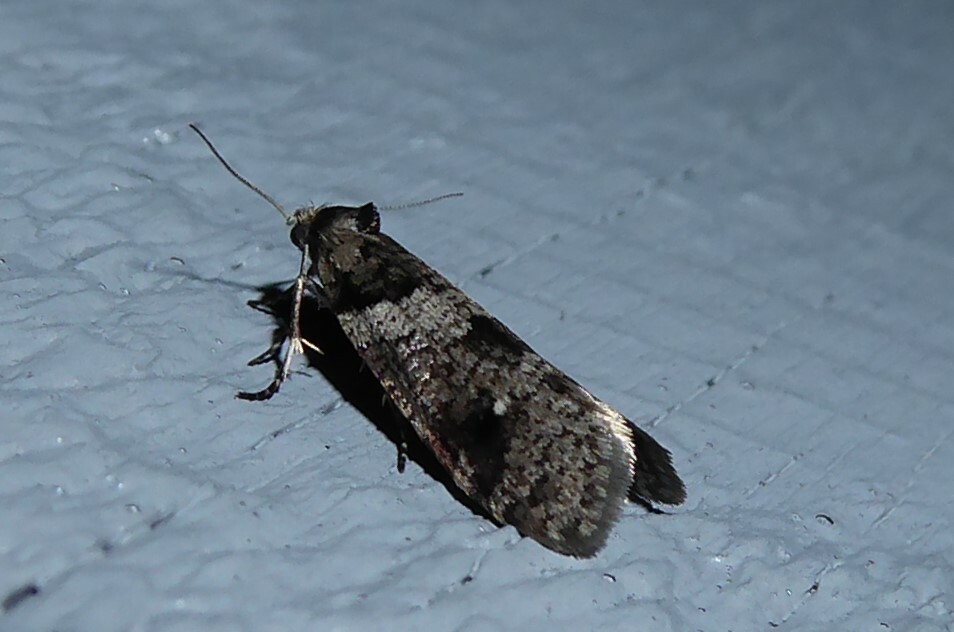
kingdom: Animalia
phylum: Arthropoda
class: Insecta
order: Lepidoptera
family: Psychidae
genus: Lepidoscia
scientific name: Lepidoscia heliochares
